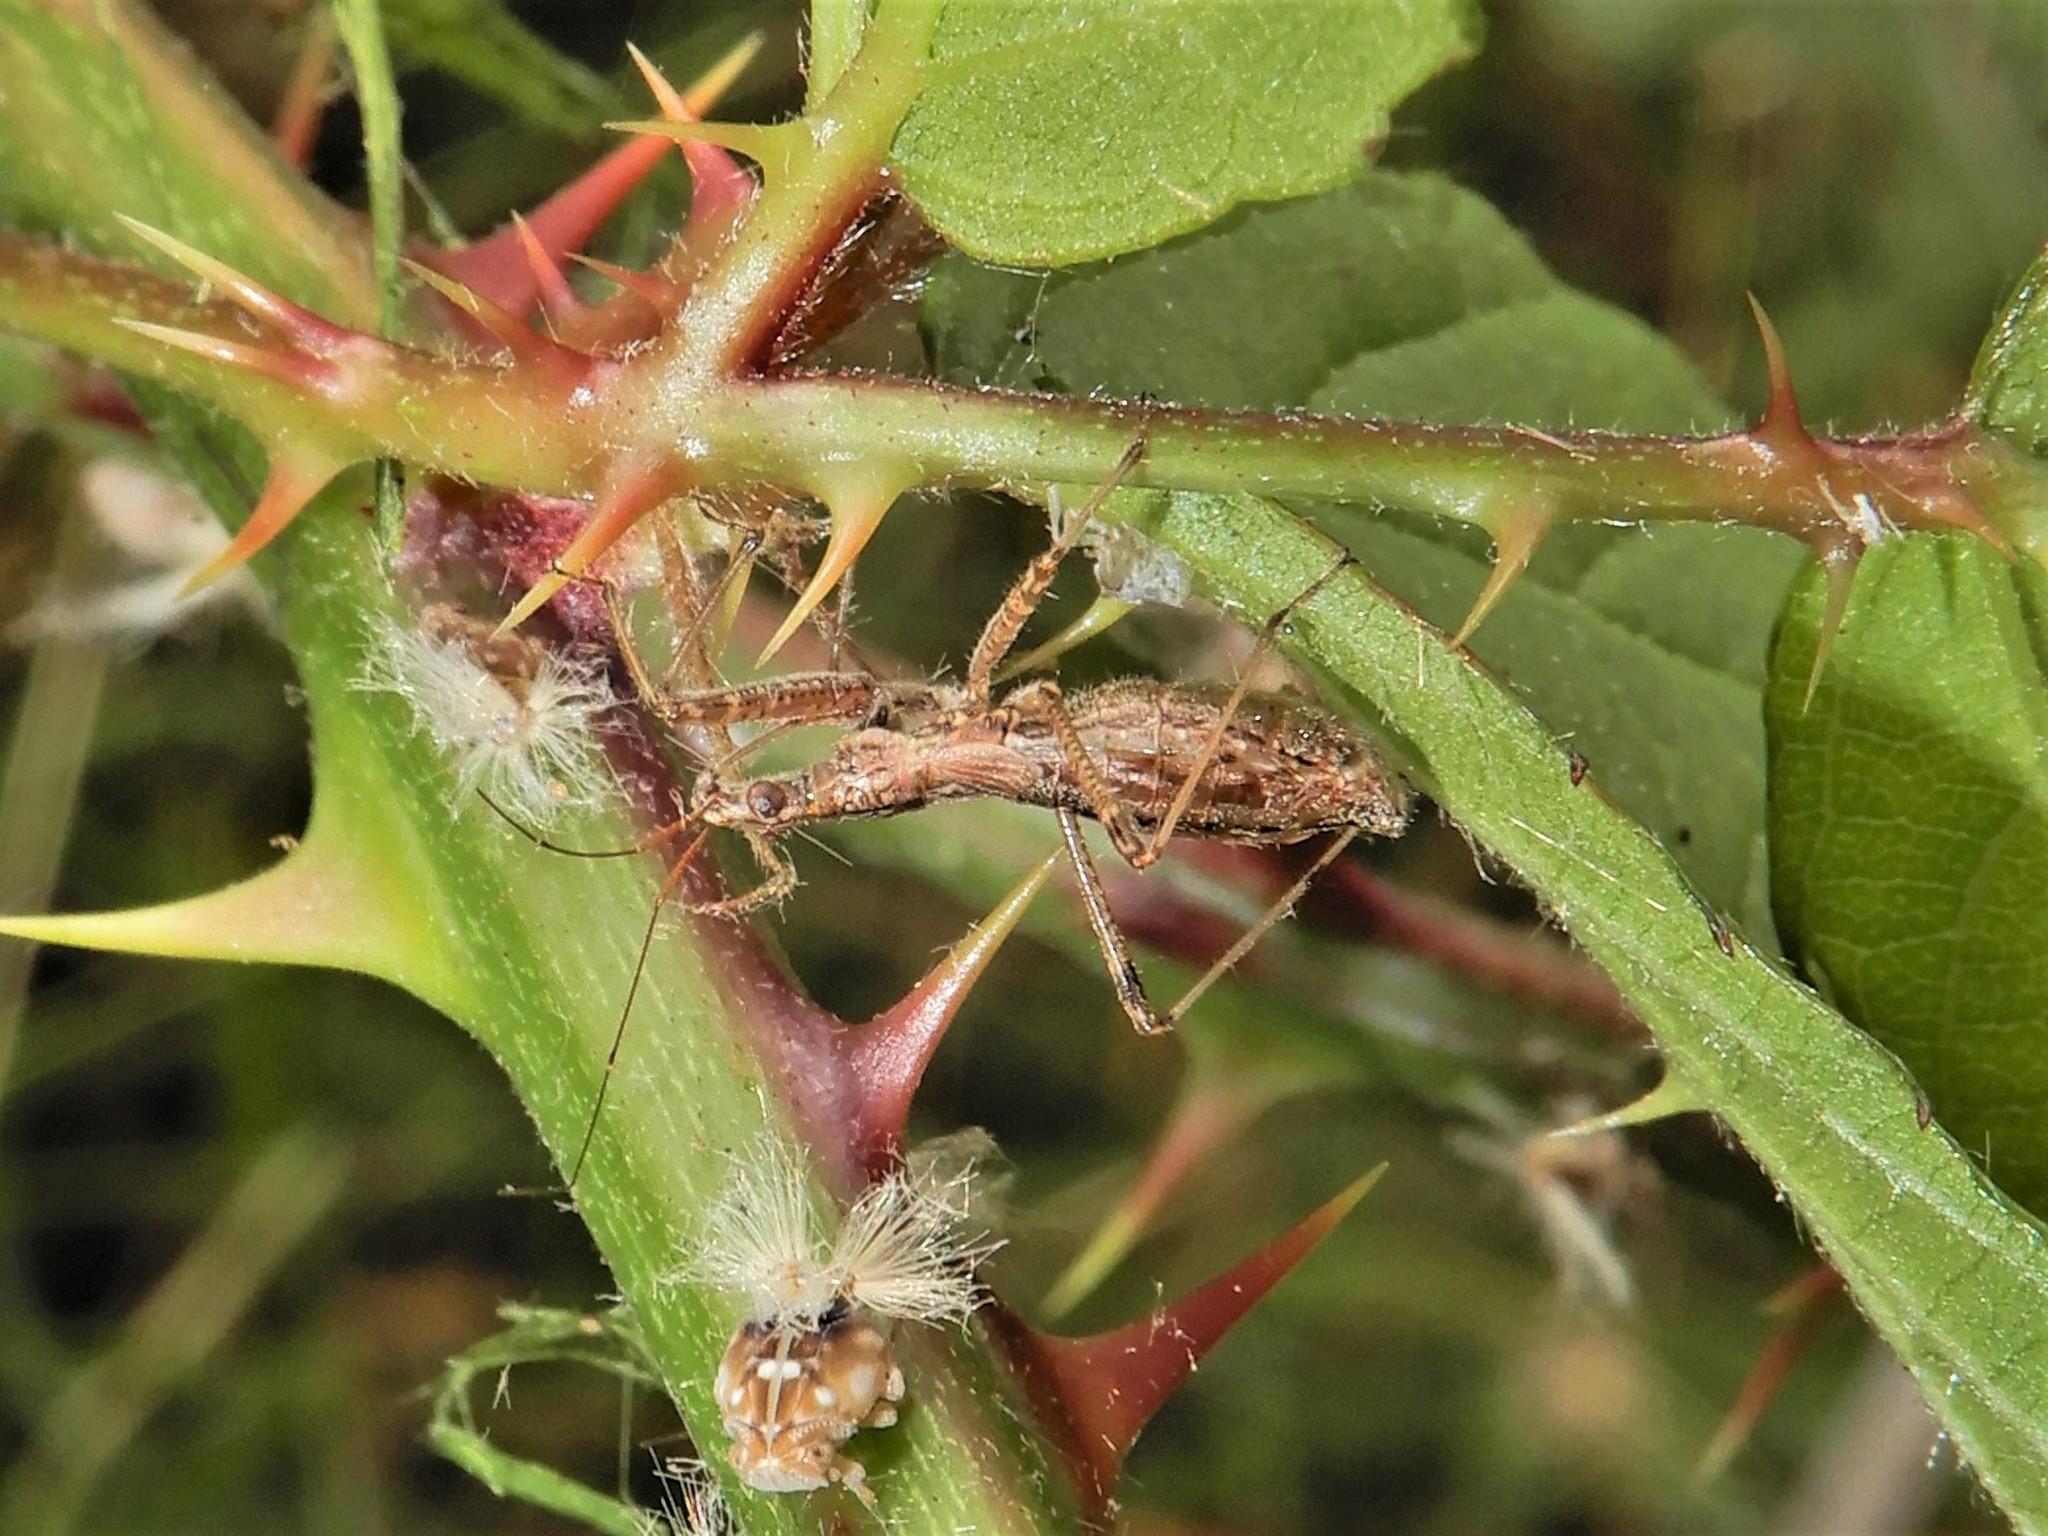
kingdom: Animalia
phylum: Arthropoda
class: Insecta
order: Hemiptera
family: Nabidae
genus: Nabis
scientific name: Nabis
